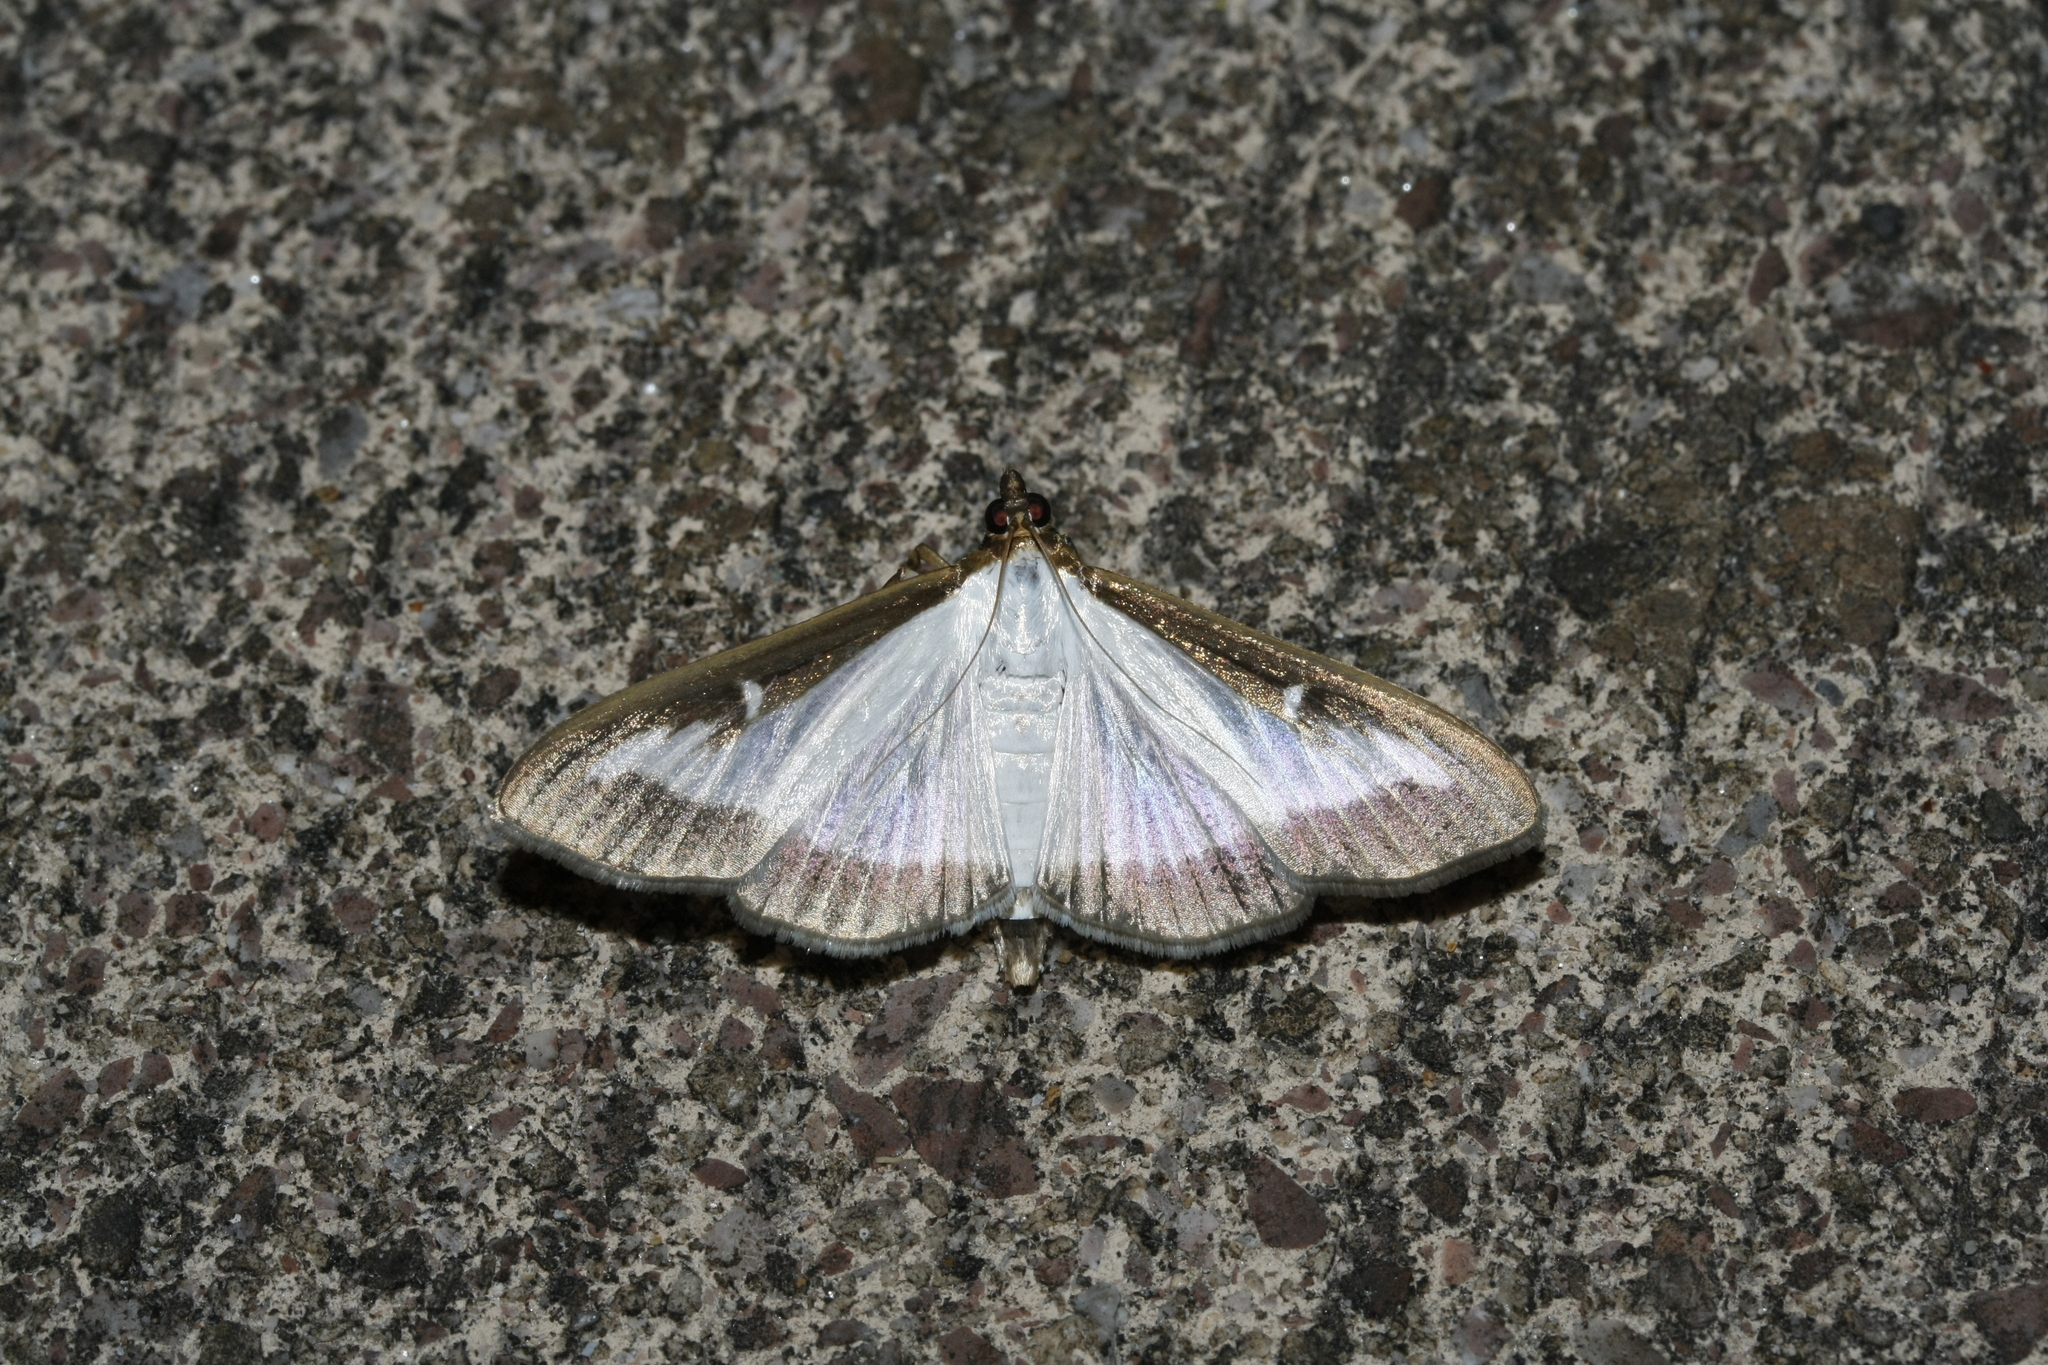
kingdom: Animalia
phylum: Arthropoda
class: Insecta
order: Lepidoptera
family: Crambidae
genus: Cydalima
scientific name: Cydalima perspectalis
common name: Box tree moth
